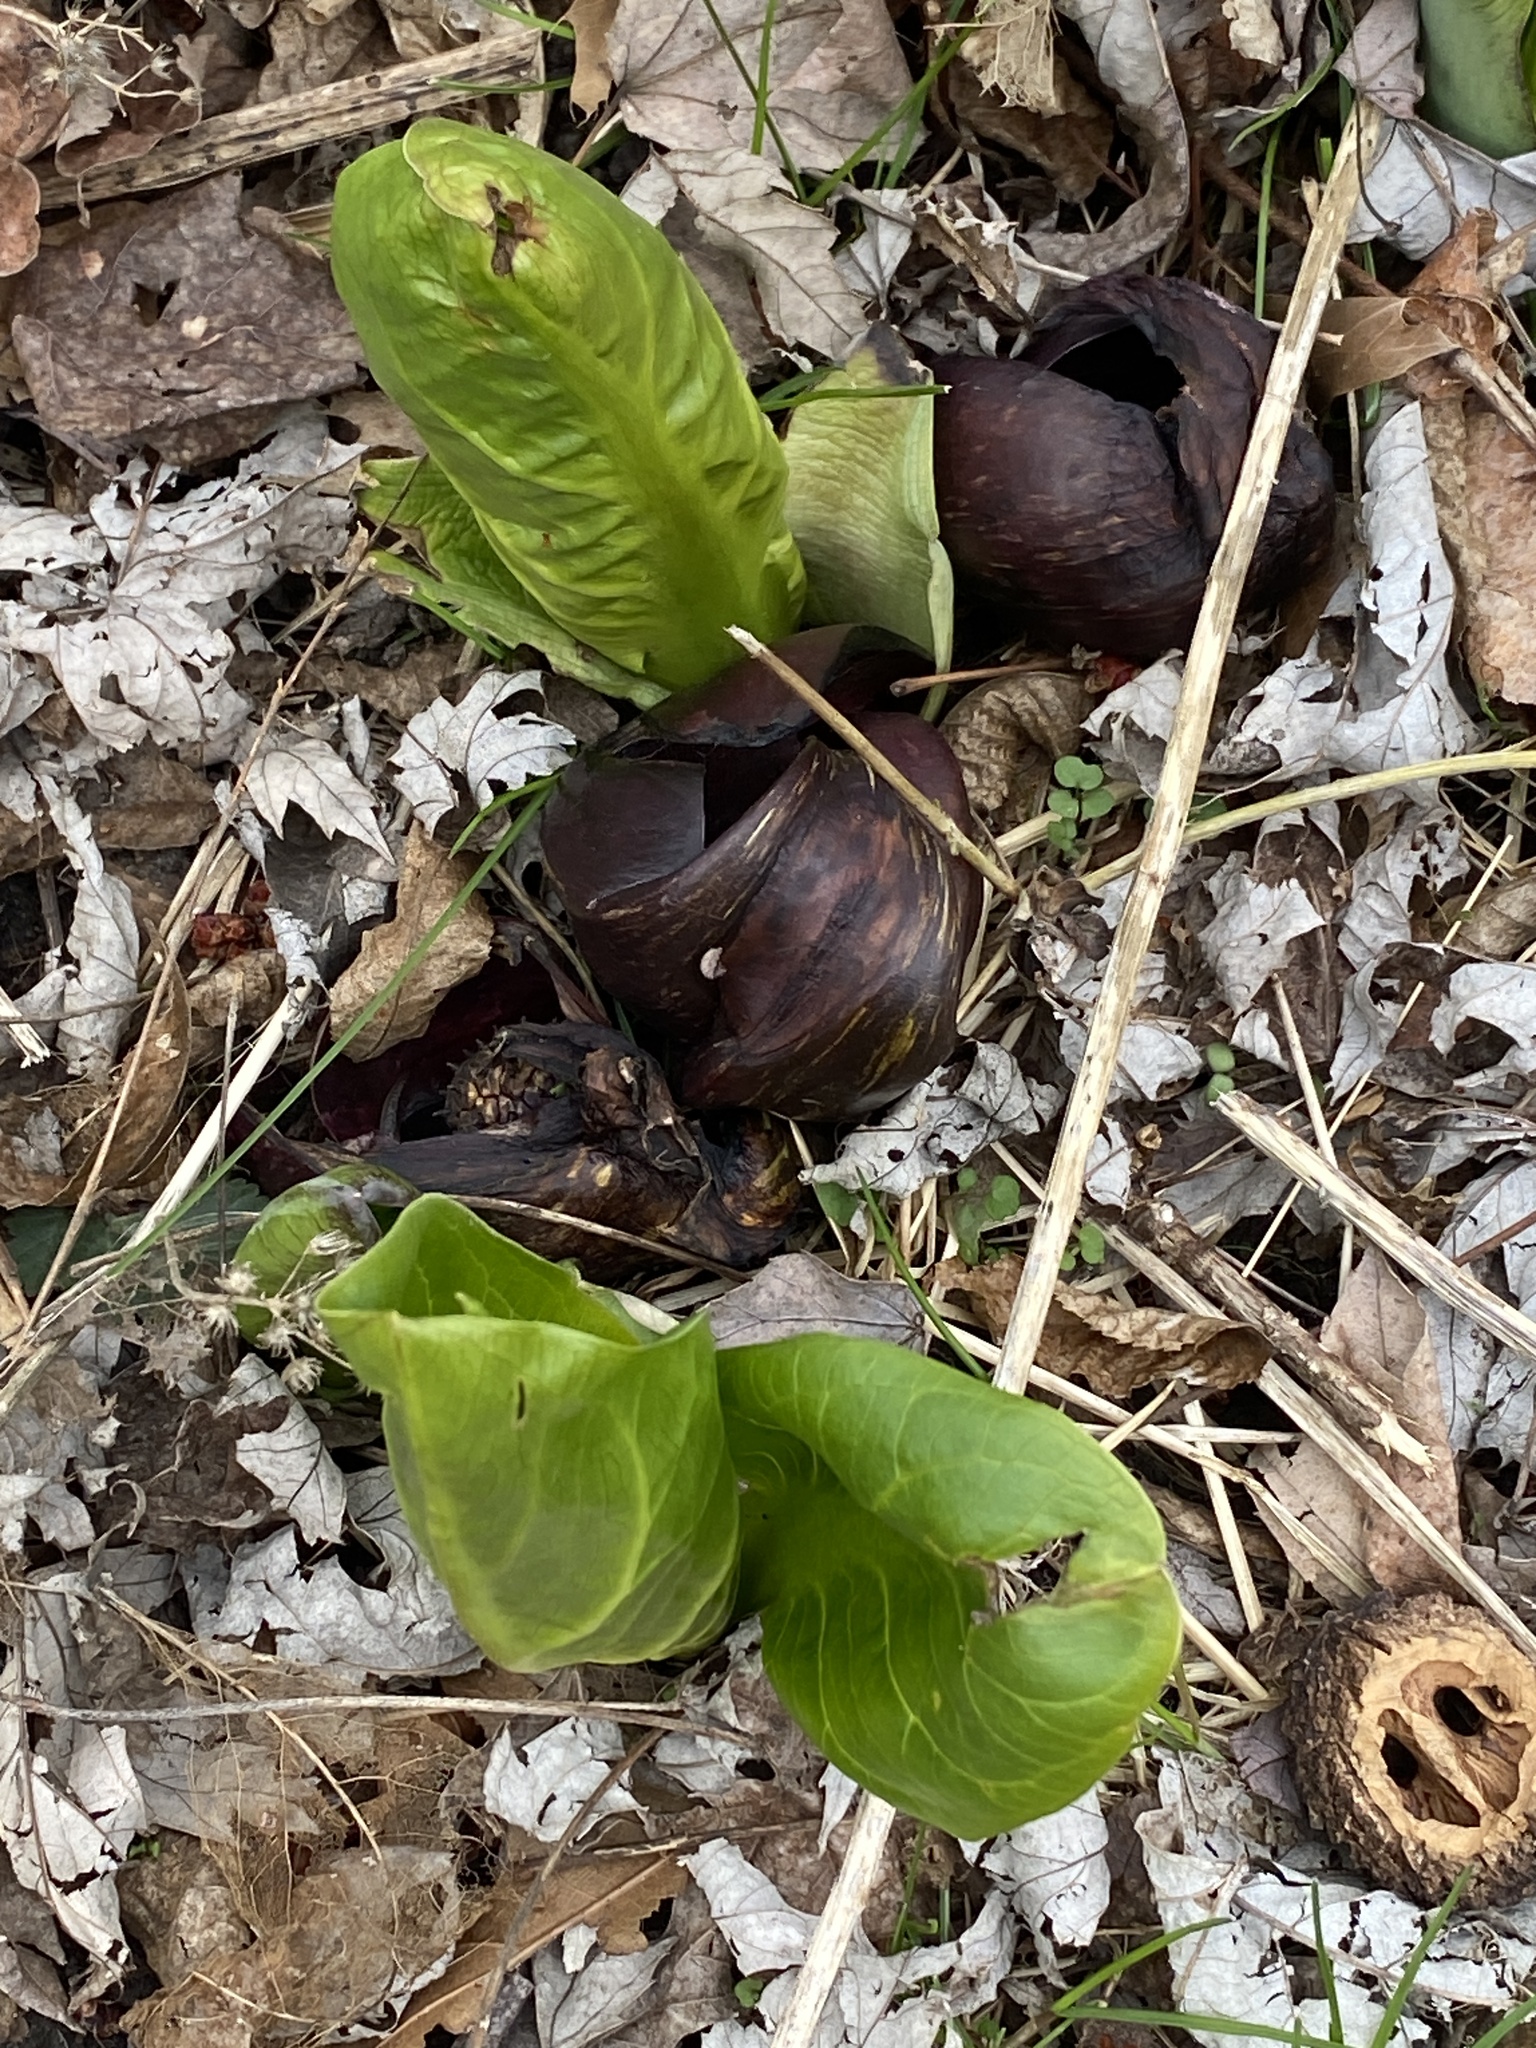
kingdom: Plantae
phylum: Tracheophyta
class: Liliopsida
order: Alismatales
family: Araceae
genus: Symplocarpus
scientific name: Symplocarpus foetidus
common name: Eastern skunk cabbage
